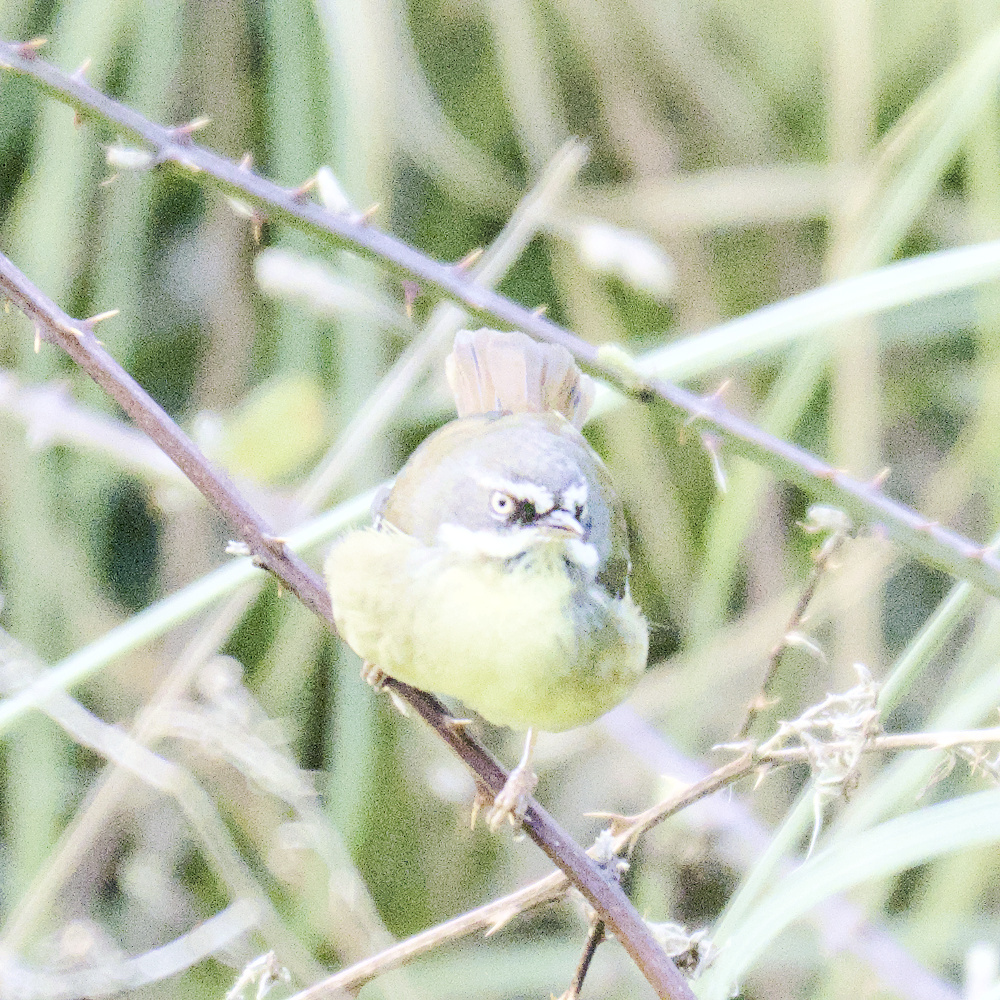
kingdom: Animalia
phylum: Chordata
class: Aves
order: Passeriformes
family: Acanthizidae
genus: Sericornis
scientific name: Sericornis frontalis
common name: White-browed scrubwren
